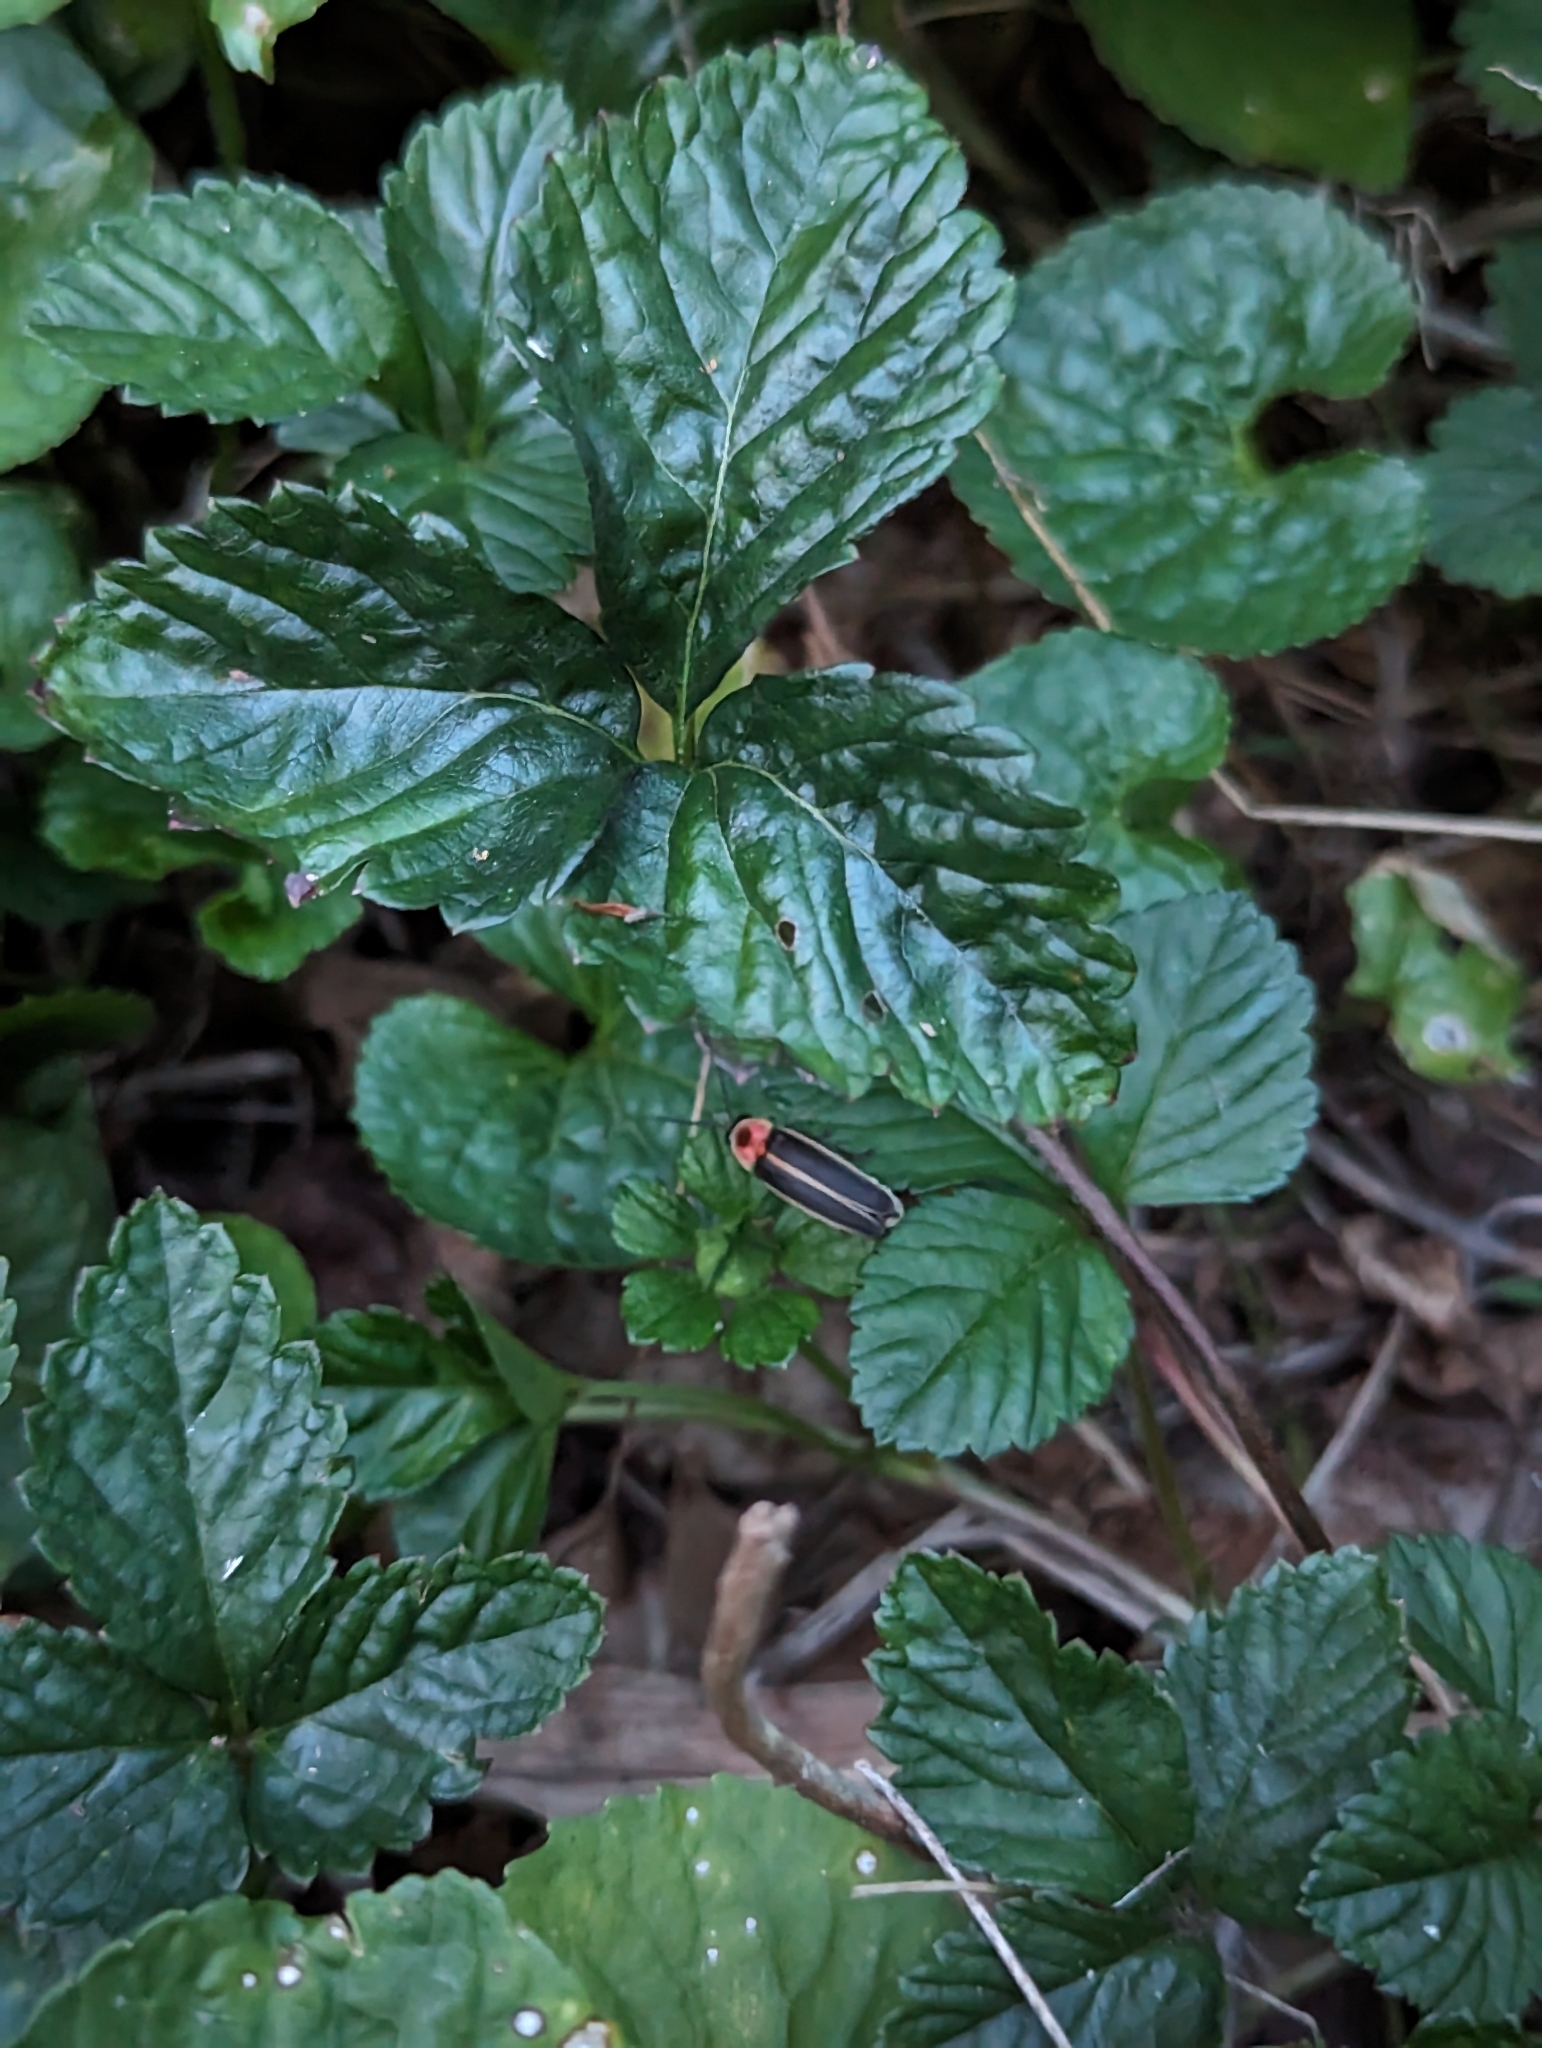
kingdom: Animalia
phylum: Arthropoda
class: Insecta
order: Coleoptera
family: Lampyridae
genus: Photinus
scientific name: Photinus pyralis
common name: Big dipper firefly
